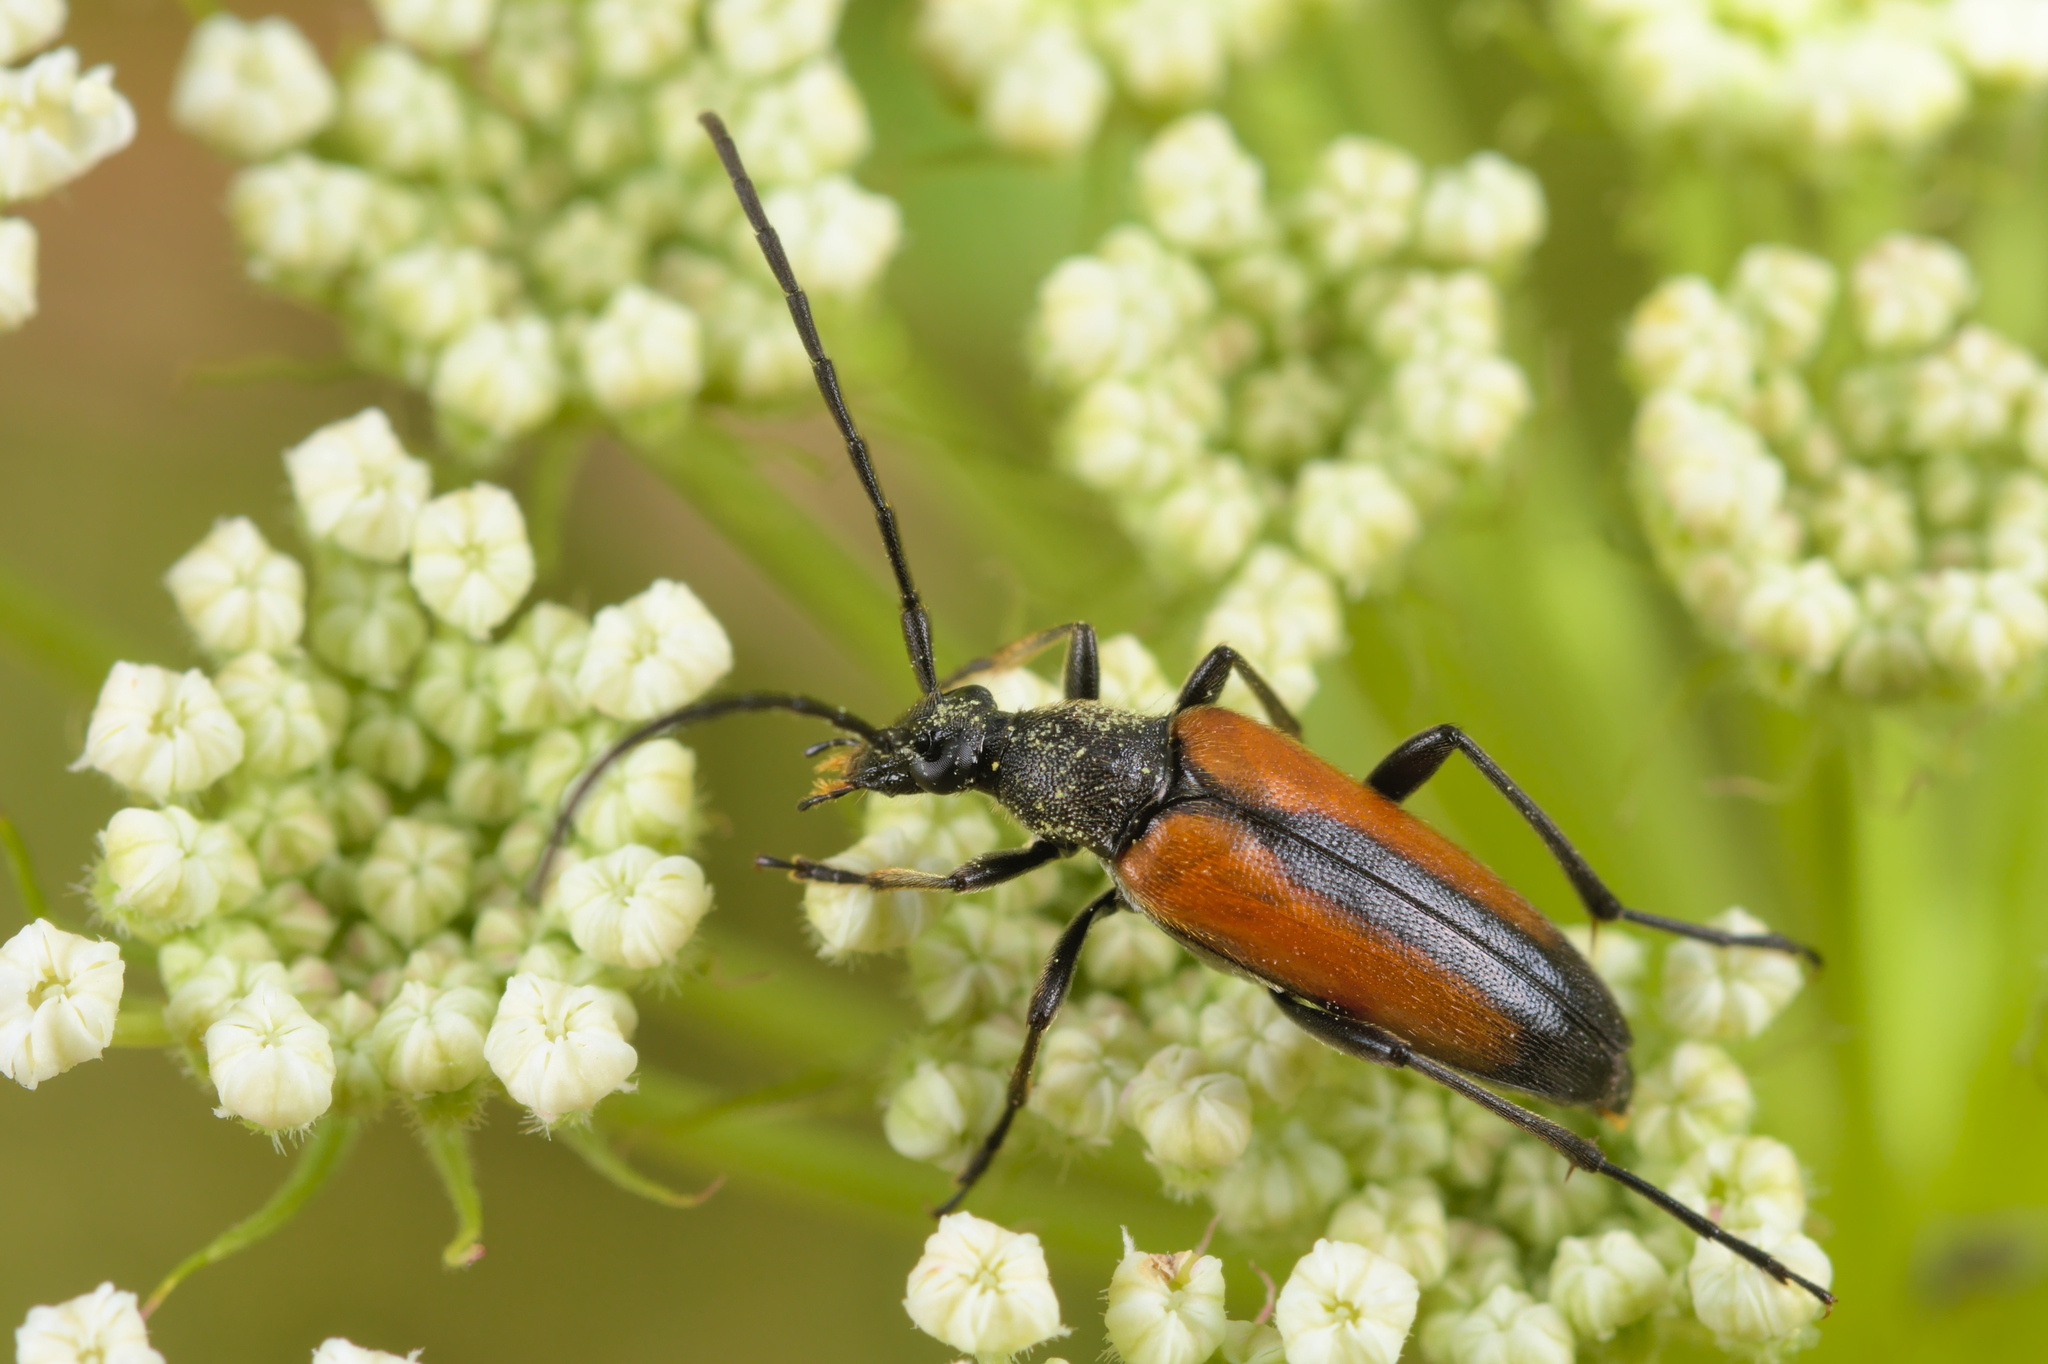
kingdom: Animalia
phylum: Arthropoda
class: Insecta
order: Coleoptera
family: Cerambycidae
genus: Stenurella
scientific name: Stenurella melanura
